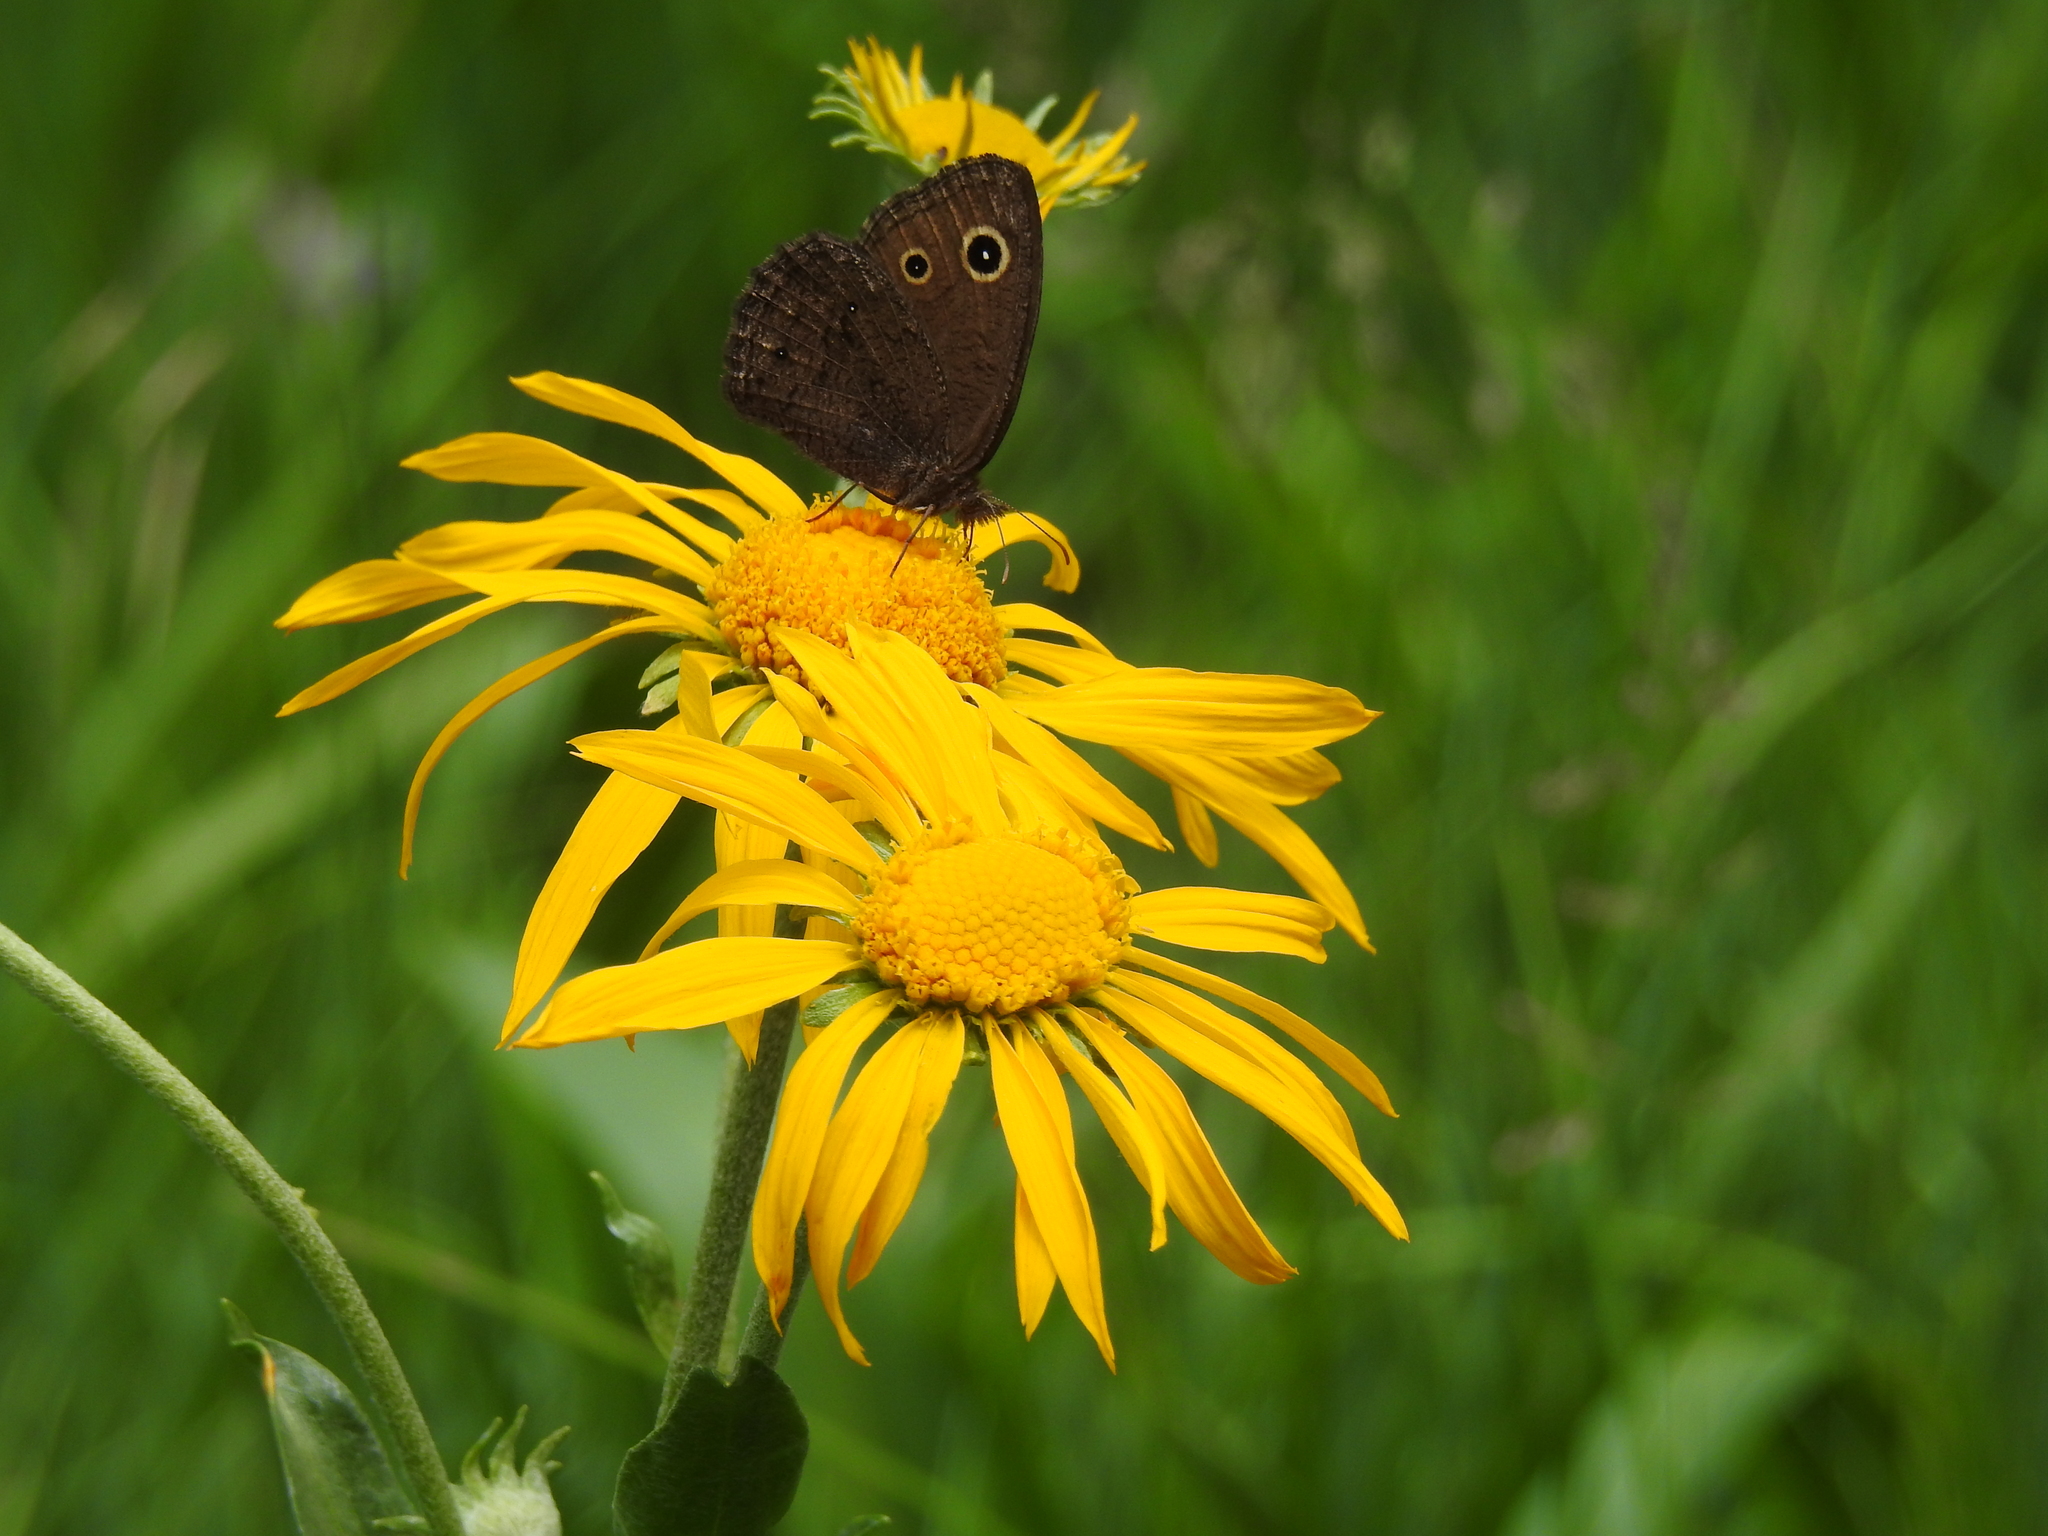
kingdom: Animalia
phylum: Arthropoda
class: Insecta
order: Lepidoptera
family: Nymphalidae
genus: Cercyonis
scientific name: Cercyonis oetus
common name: Small wood-nymph
